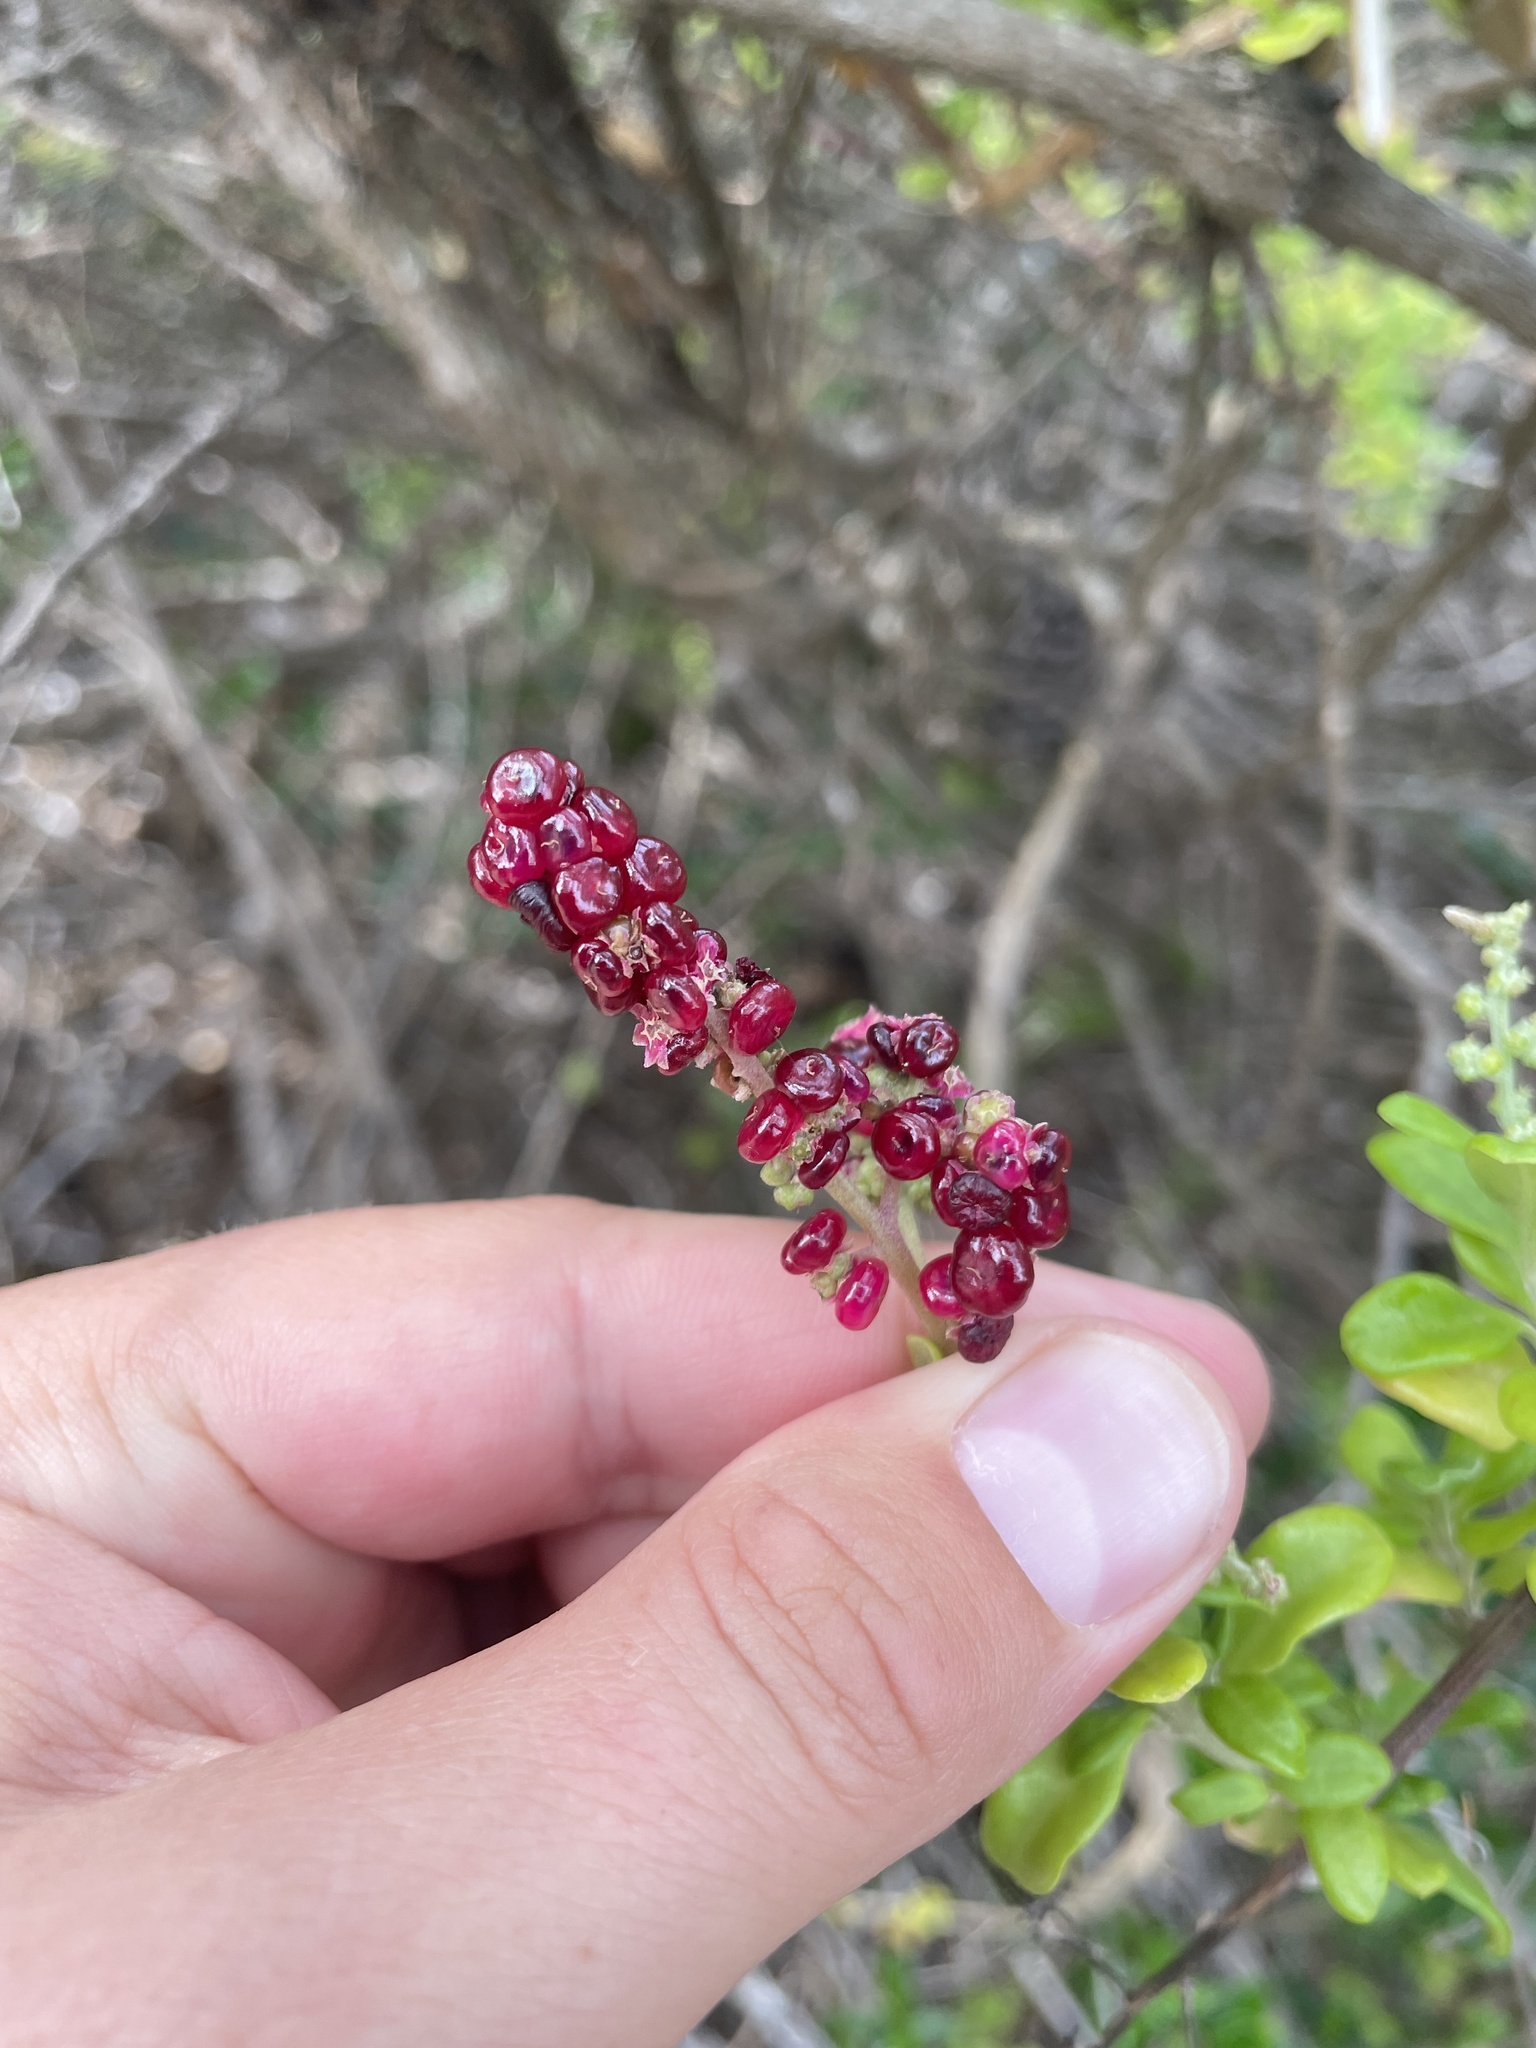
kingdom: Plantae
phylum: Tracheophyta
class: Magnoliopsida
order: Caryophyllales
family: Amaranthaceae
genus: Chenopodium
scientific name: Chenopodium candolleanum
